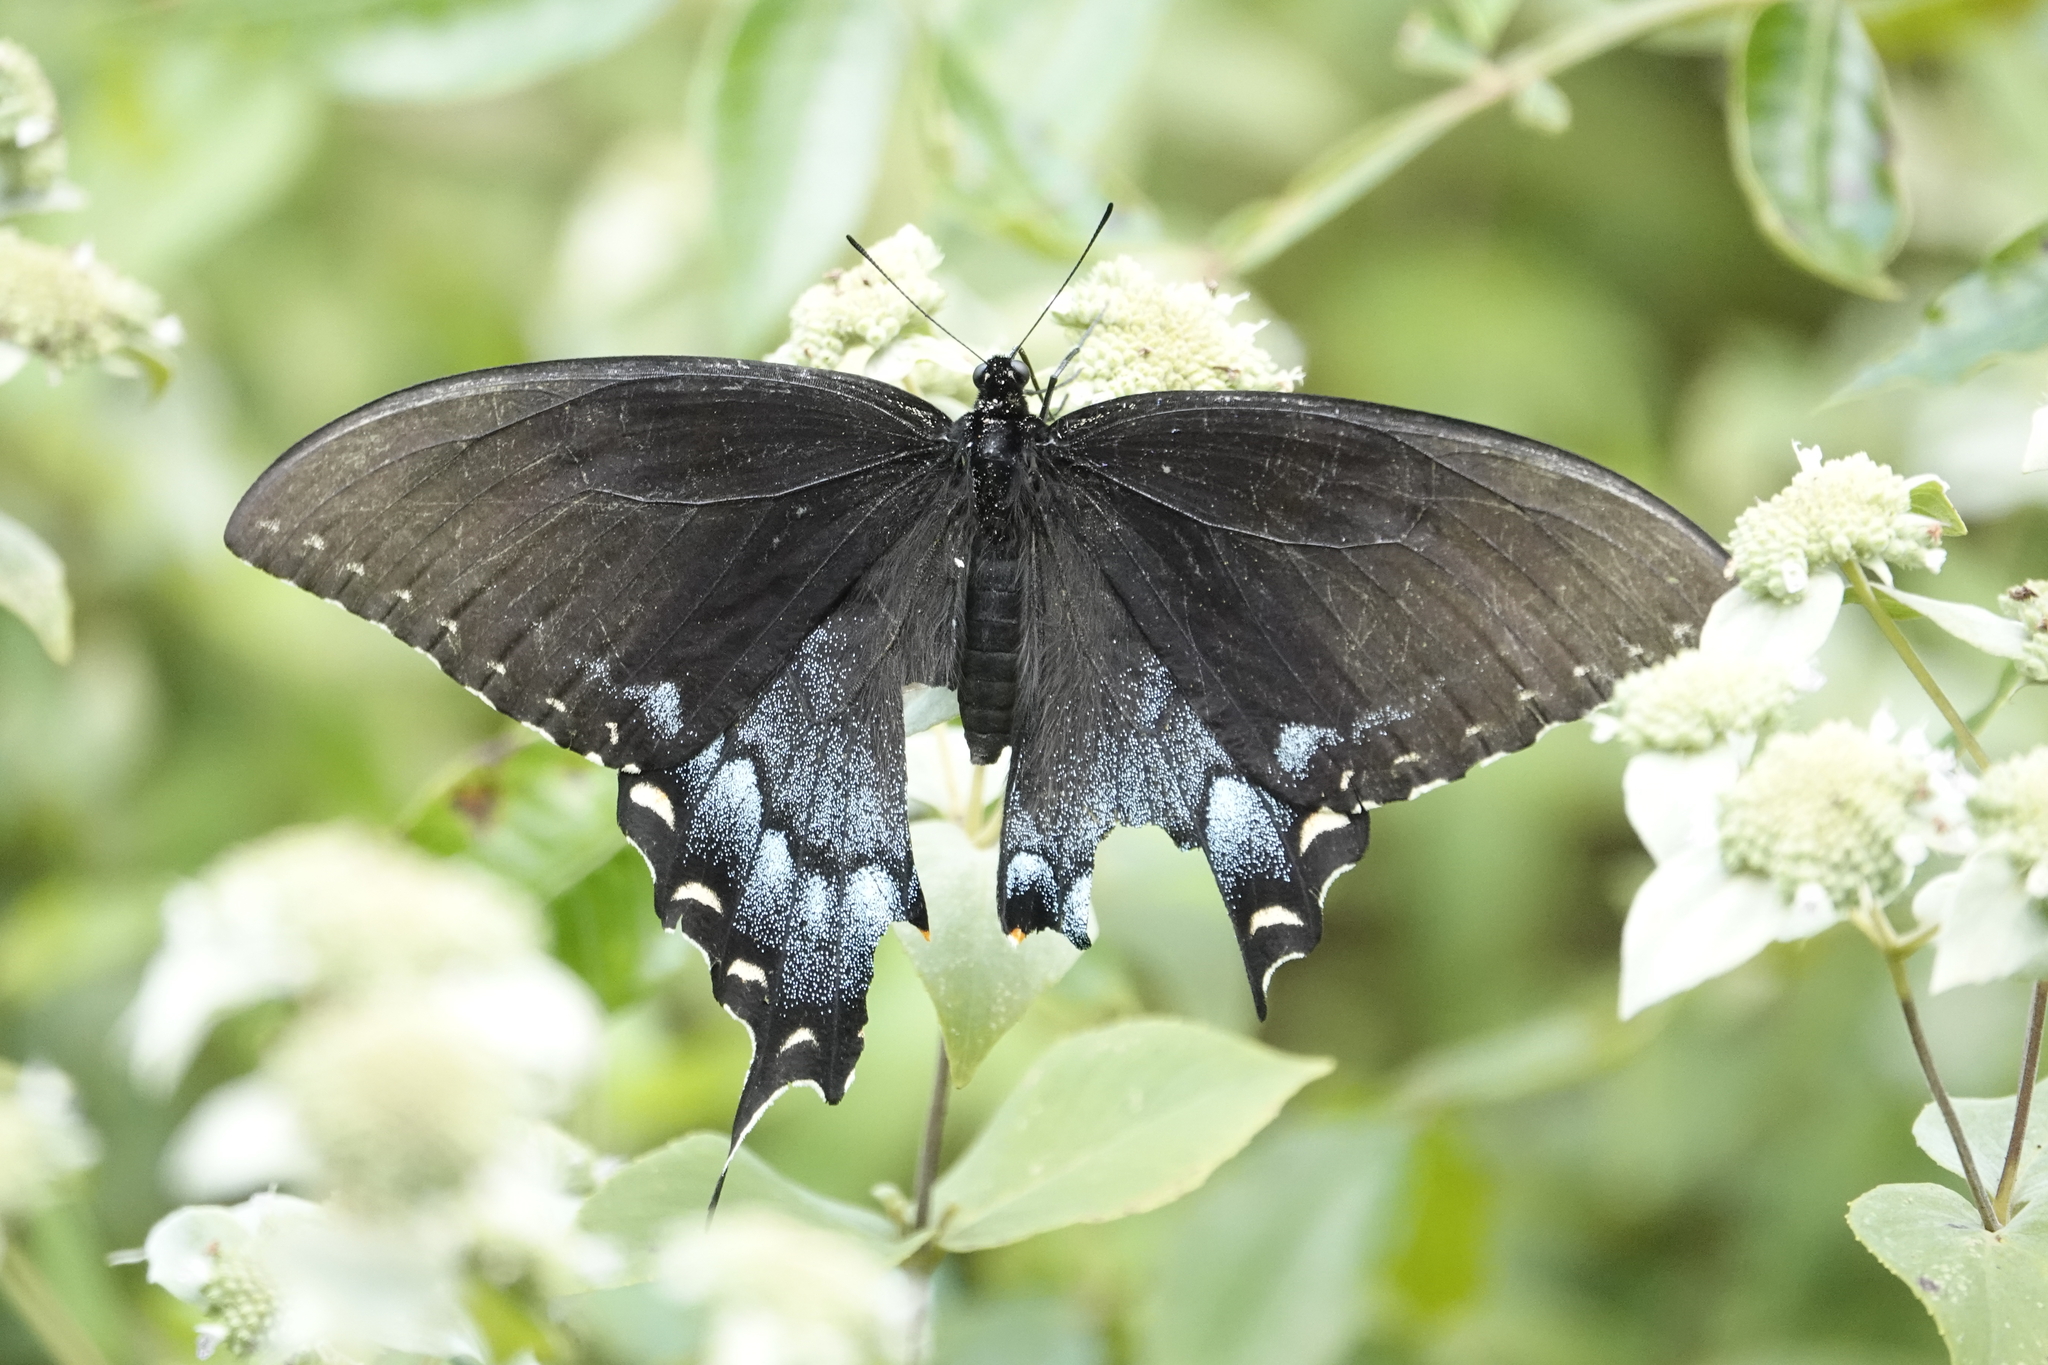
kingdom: Animalia
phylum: Arthropoda
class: Insecta
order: Lepidoptera
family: Papilionidae
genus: Papilio
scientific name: Papilio glaucus
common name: Tiger swallowtail
